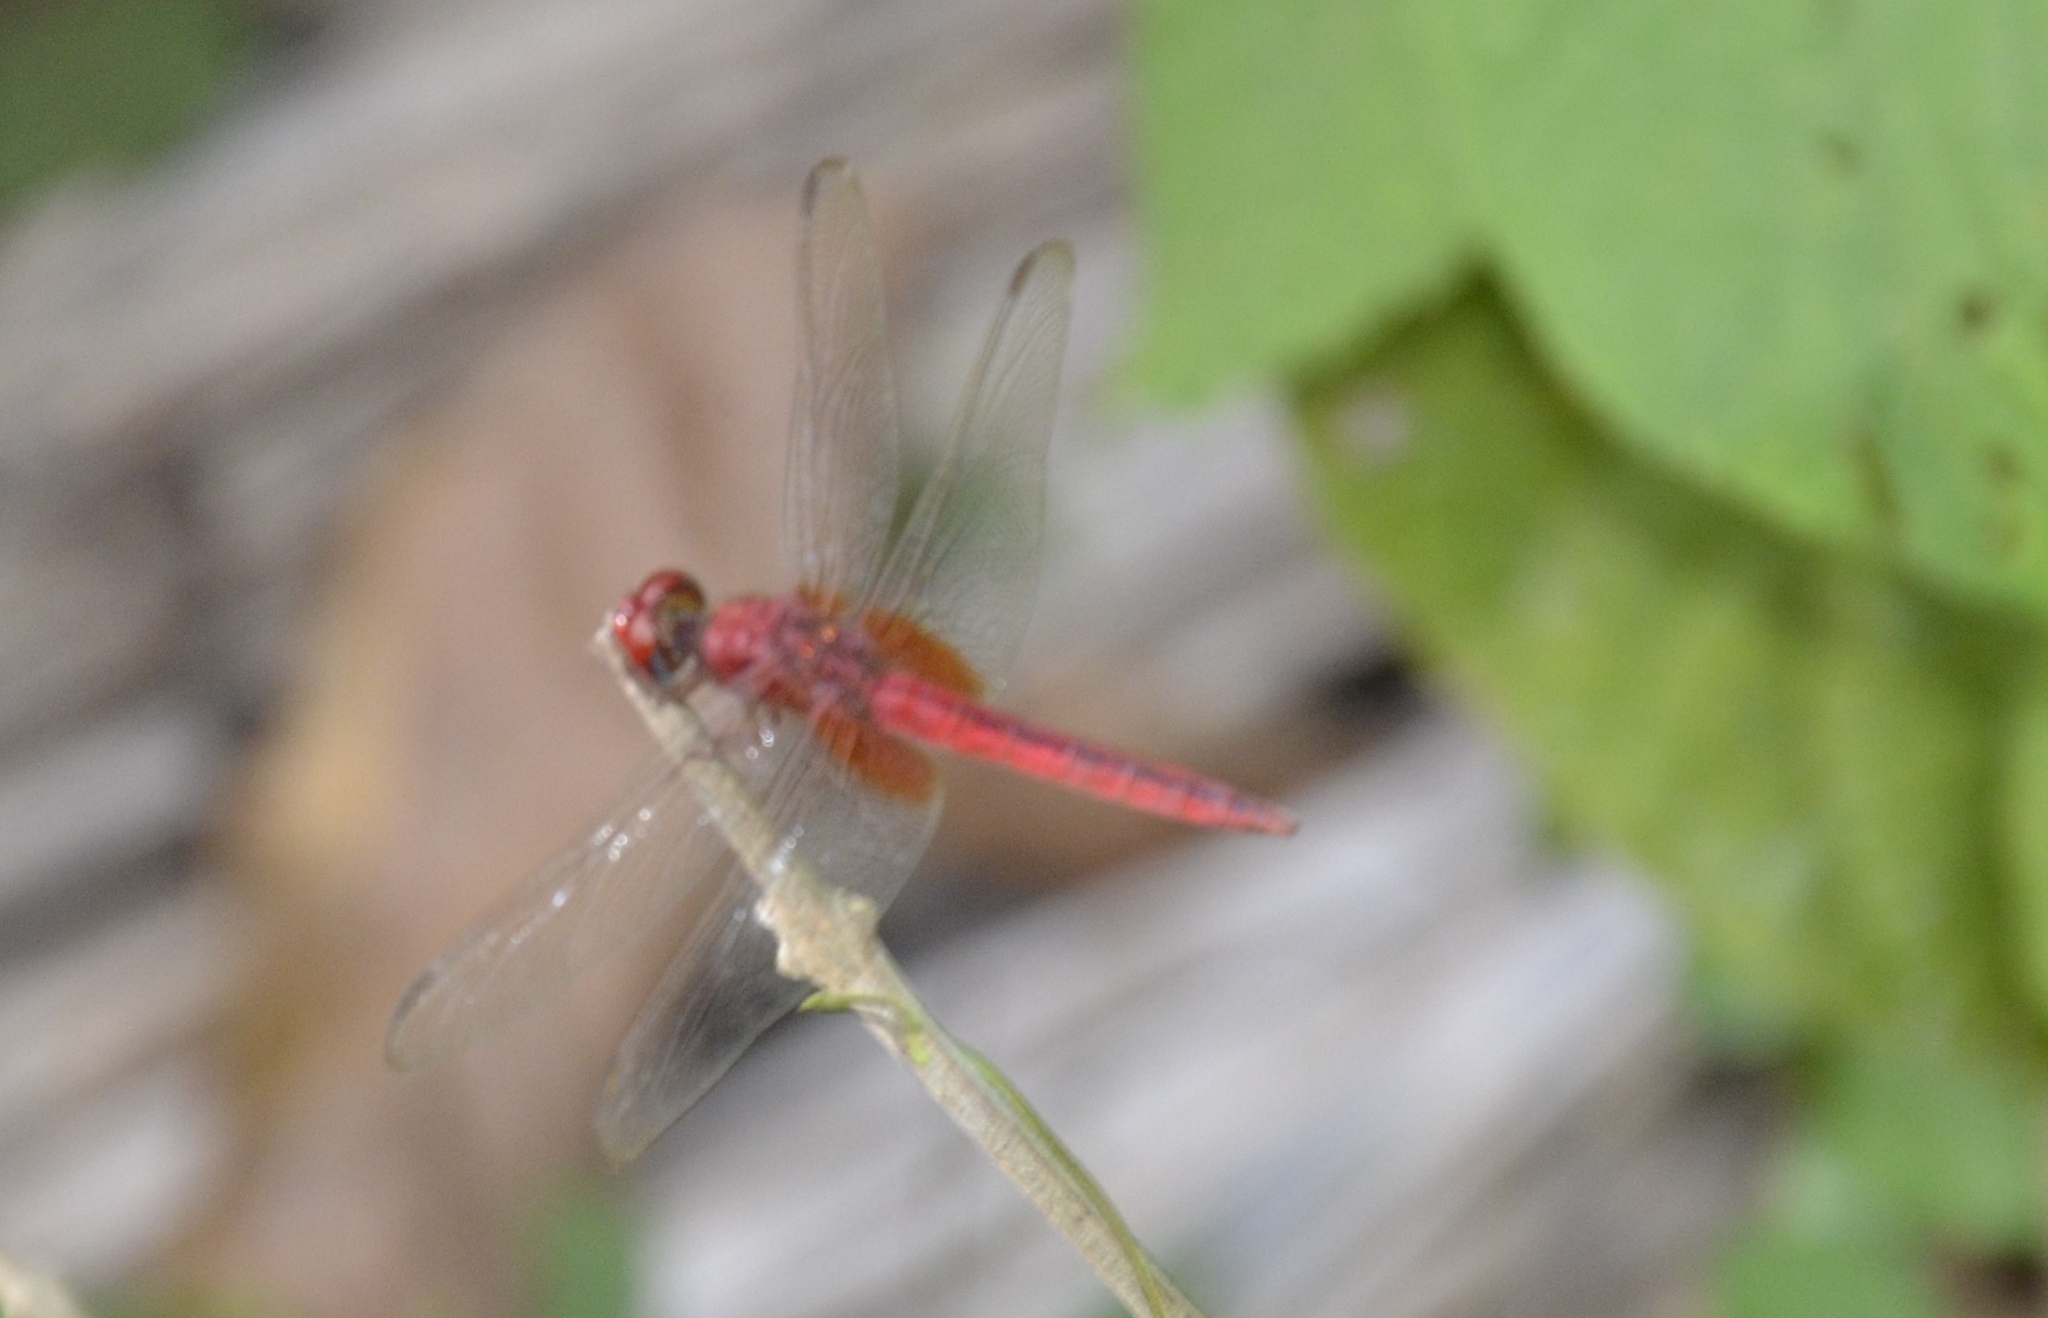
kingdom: Animalia
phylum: Arthropoda
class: Insecta
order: Odonata
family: Libellulidae
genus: Crocothemis
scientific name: Crocothemis servilia
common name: Scarlet skimmer
